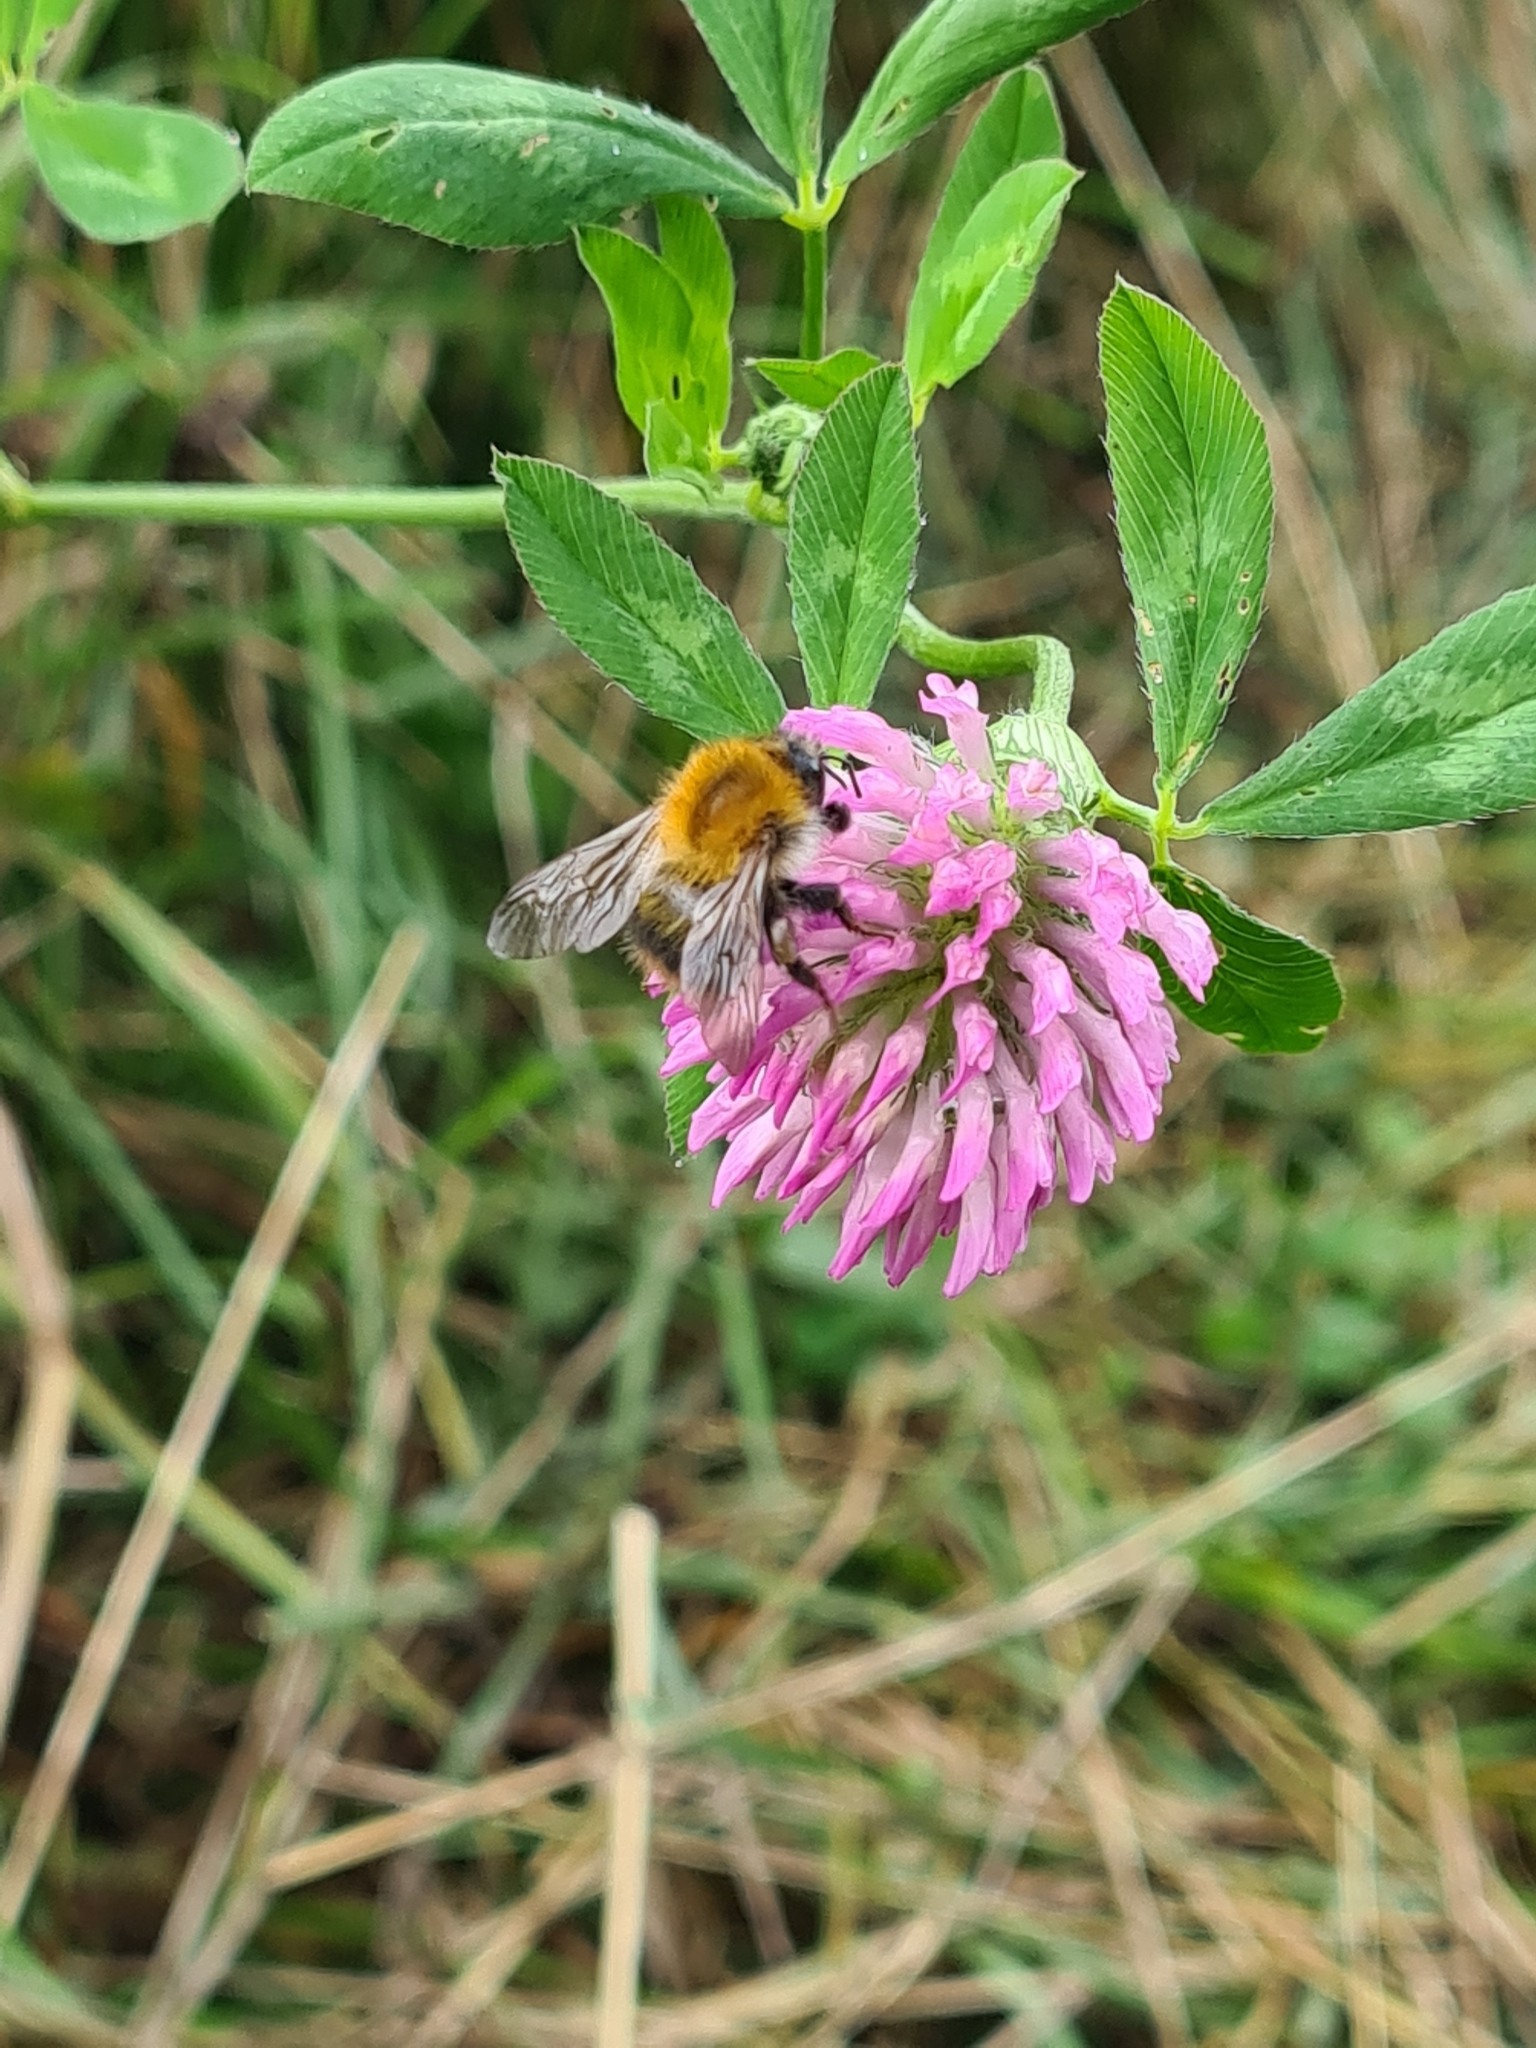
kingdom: Animalia
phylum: Arthropoda
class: Insecta
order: Hymenoptera
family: Apidae
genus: Bombus
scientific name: Bombus pascuorum
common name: Common carder bee
